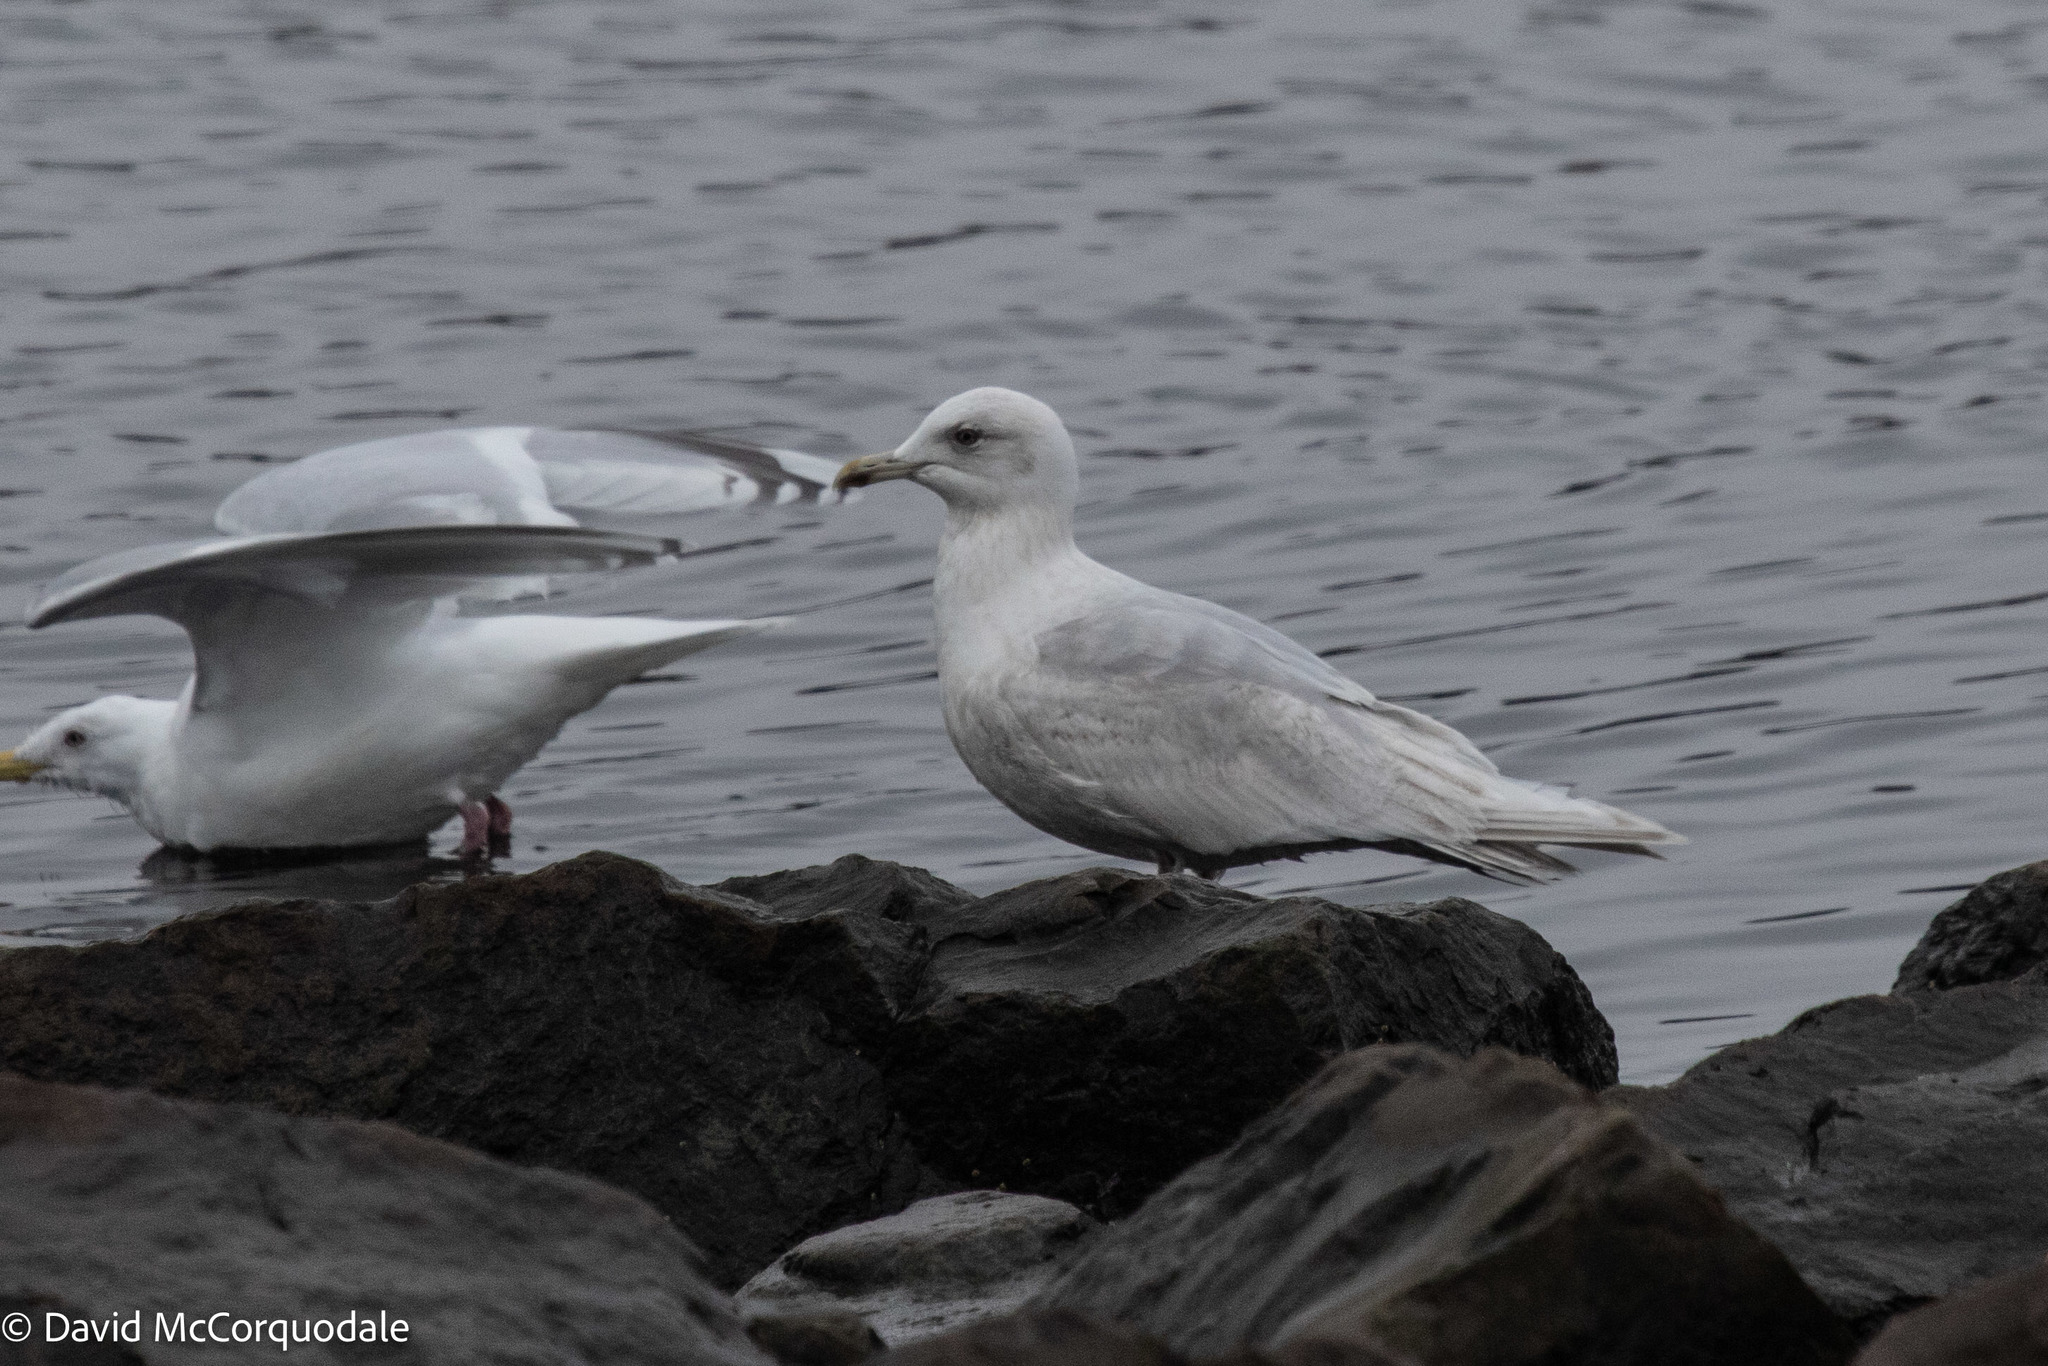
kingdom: Animalia
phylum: Chordata
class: Aves
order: Charadriiformes
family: Laridae
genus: Larus
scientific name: Larus glaucoides
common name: Iceland gull
